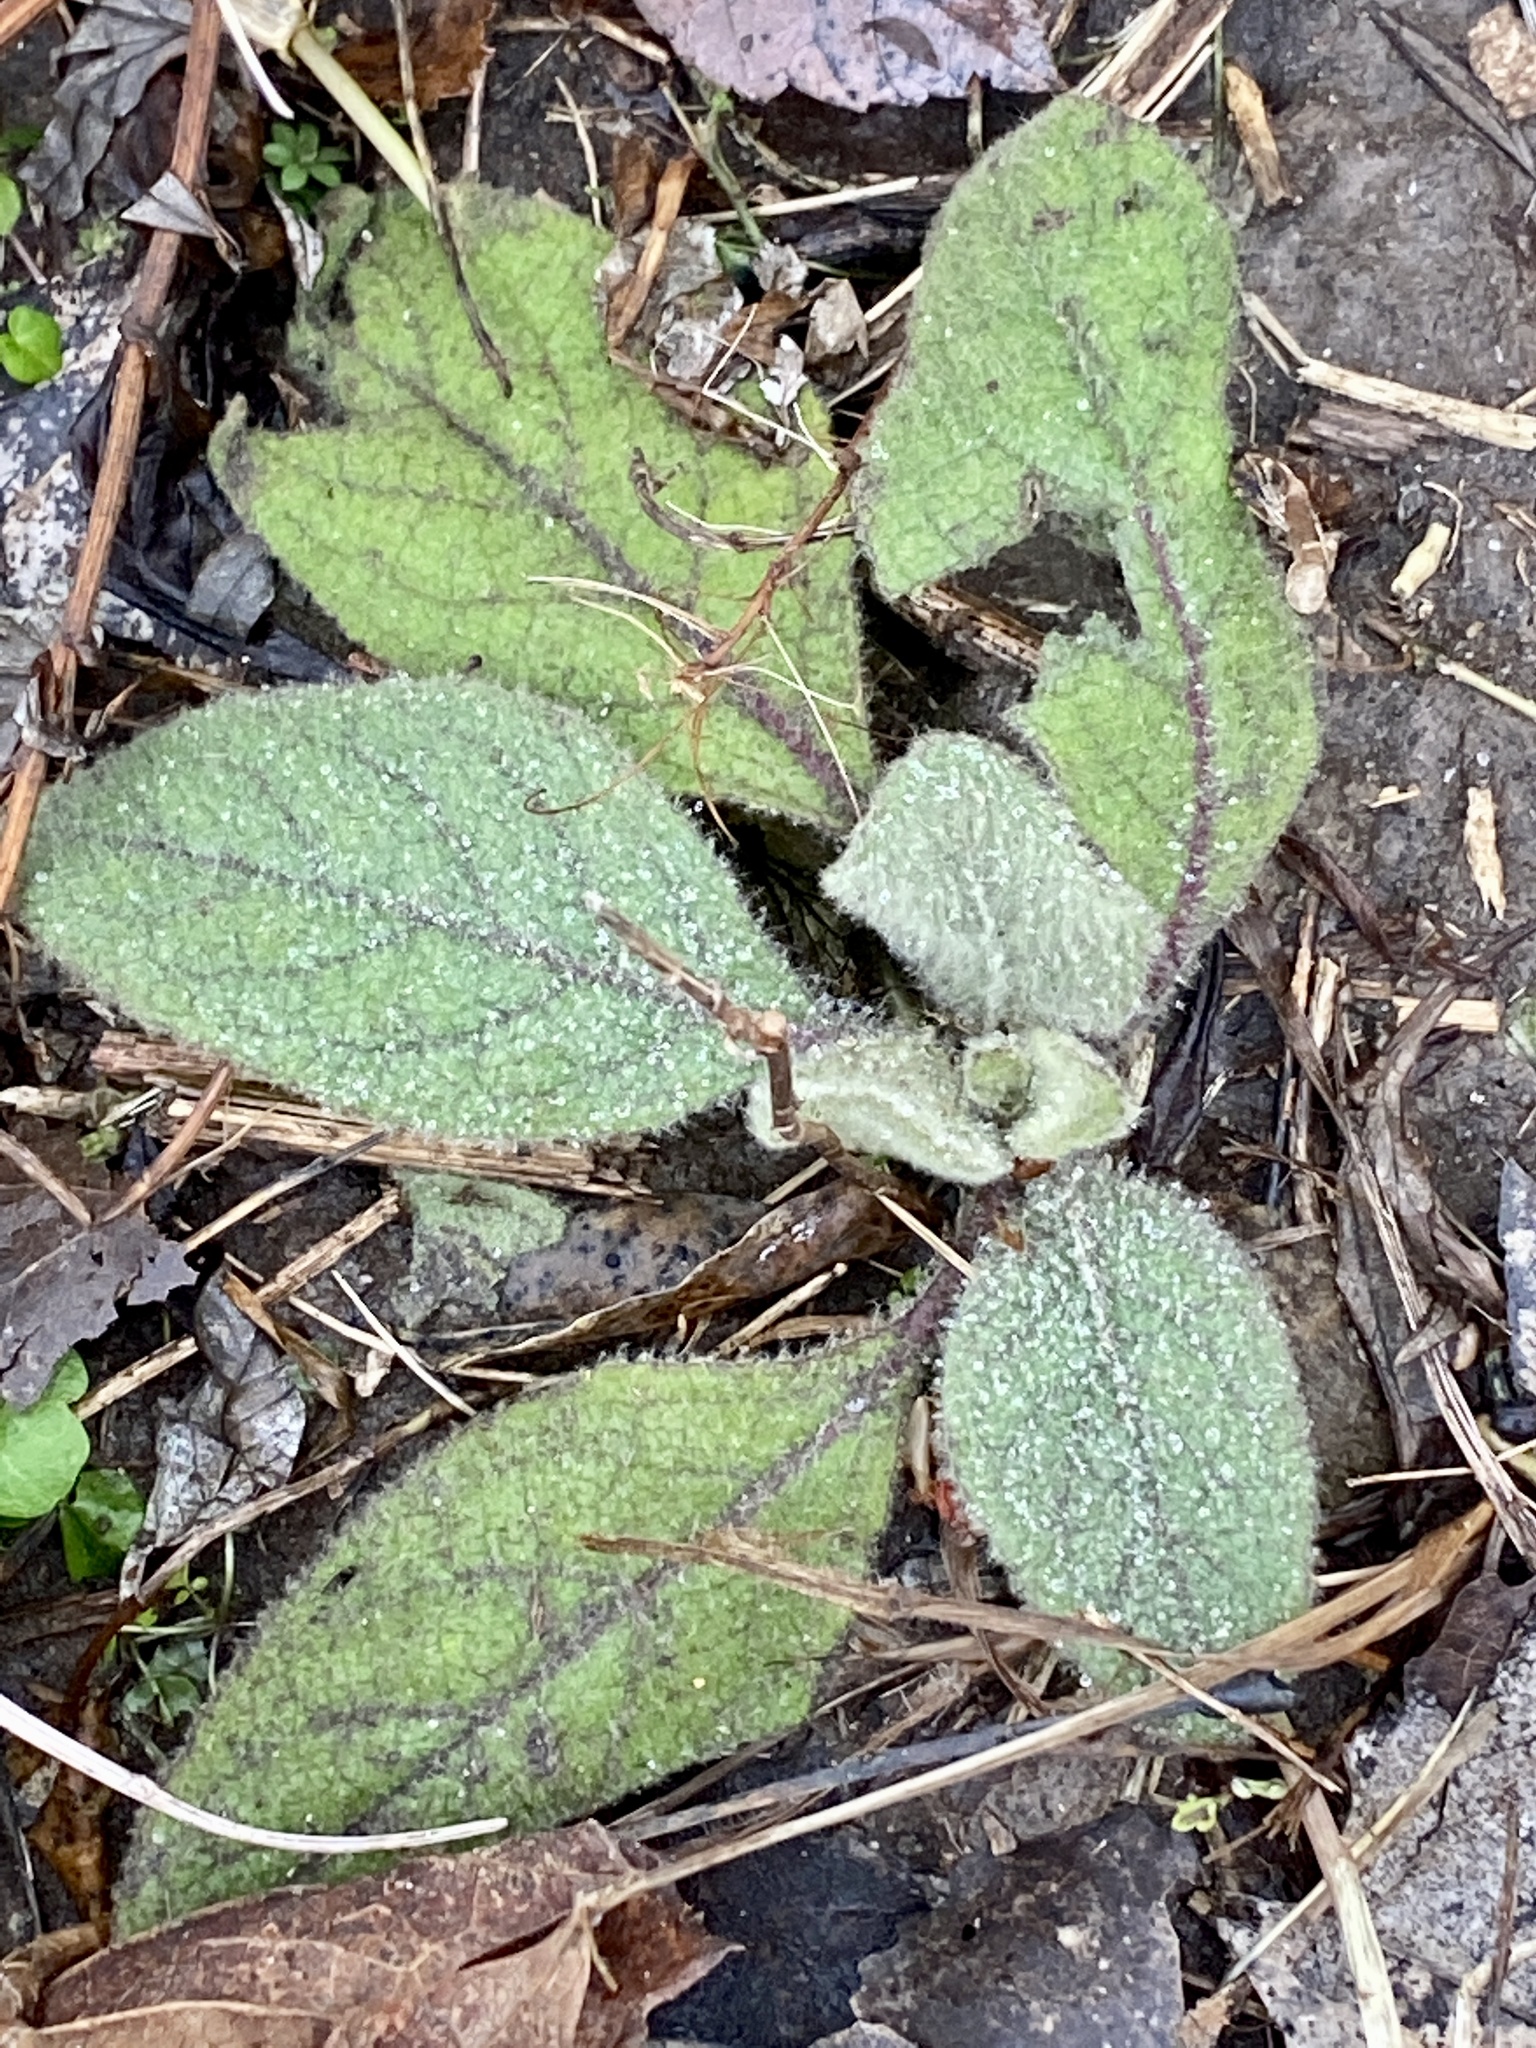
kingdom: Plantae
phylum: Tracheophyta
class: Magnoliopsida
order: Lamiales
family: Scrophulariaceae
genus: Verbascum
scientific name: Verbascum thapsus
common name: Common mullein
